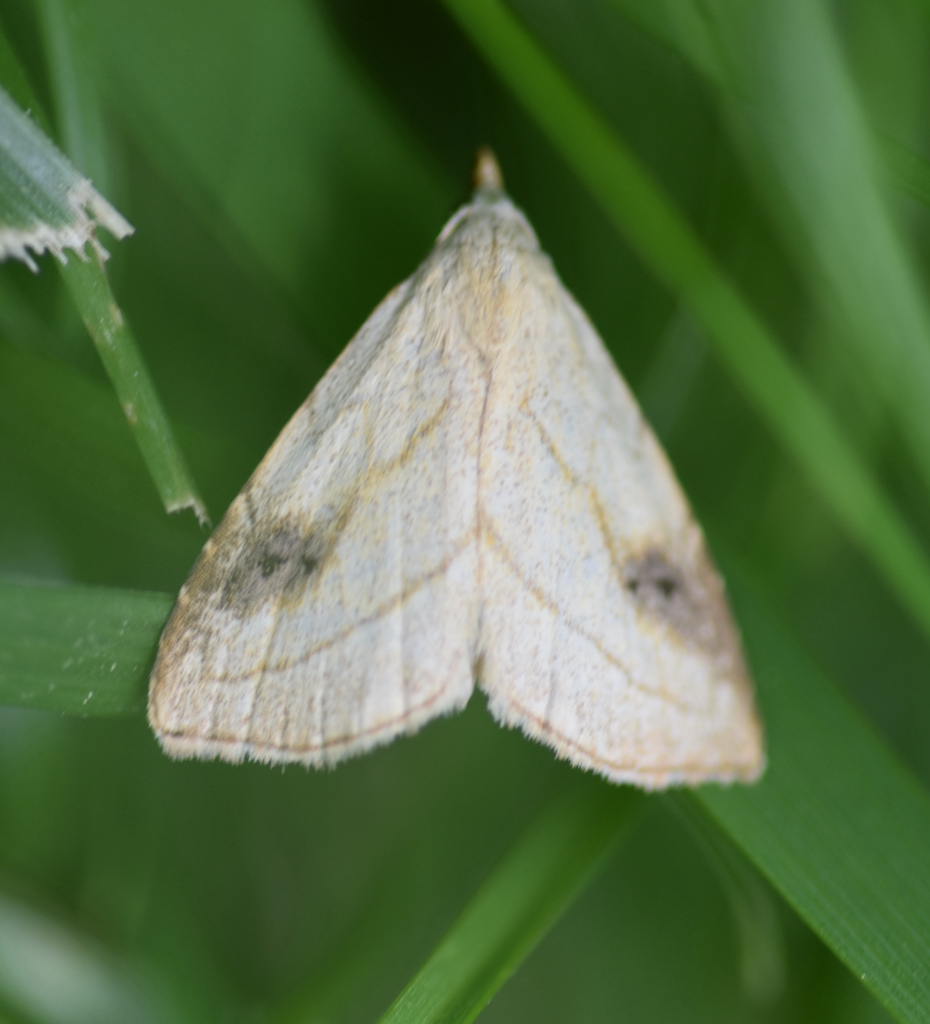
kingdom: Animalia
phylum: Arthropoda
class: Insecta
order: Lepidoptera
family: Erebidae
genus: Rivula
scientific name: Rivula propinqualis
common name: Spotted grass moth
